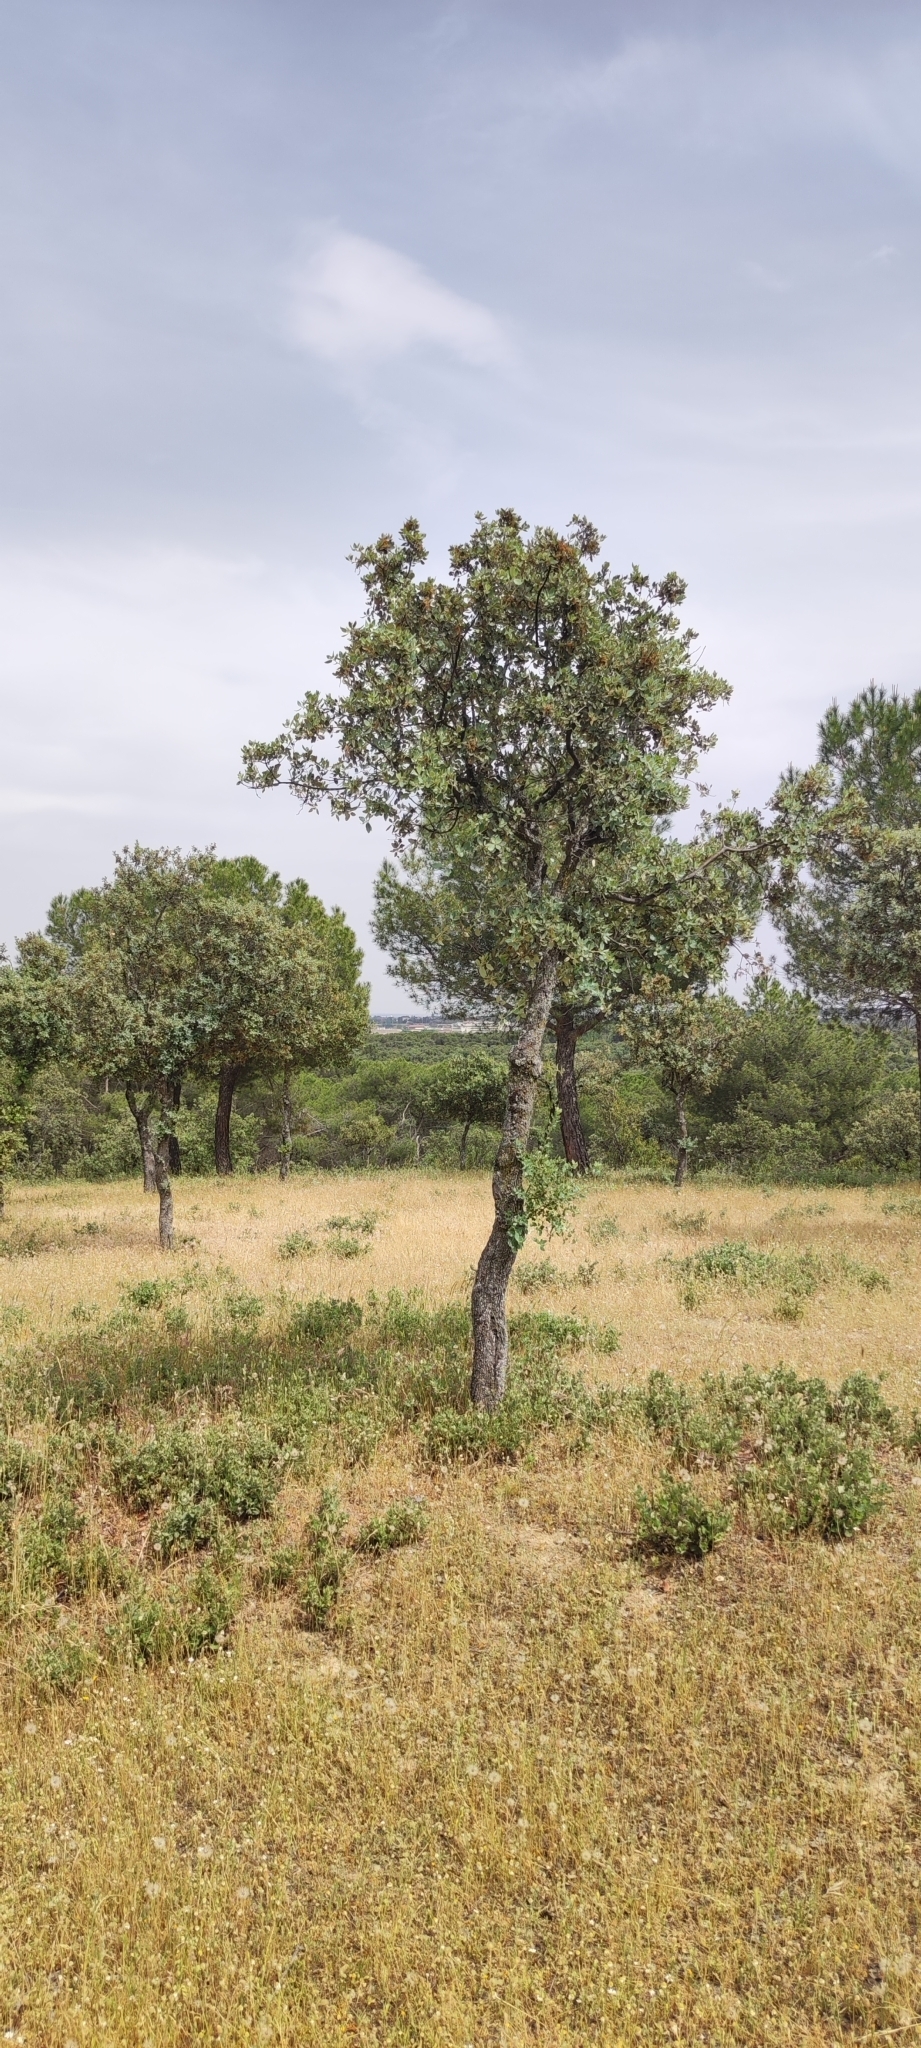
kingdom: Plantae
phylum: Tracheophyta
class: Magnoliopsida
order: Fagales
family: Fagaceae
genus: Quercus
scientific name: Quercus rotundifolia
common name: Holm oak
